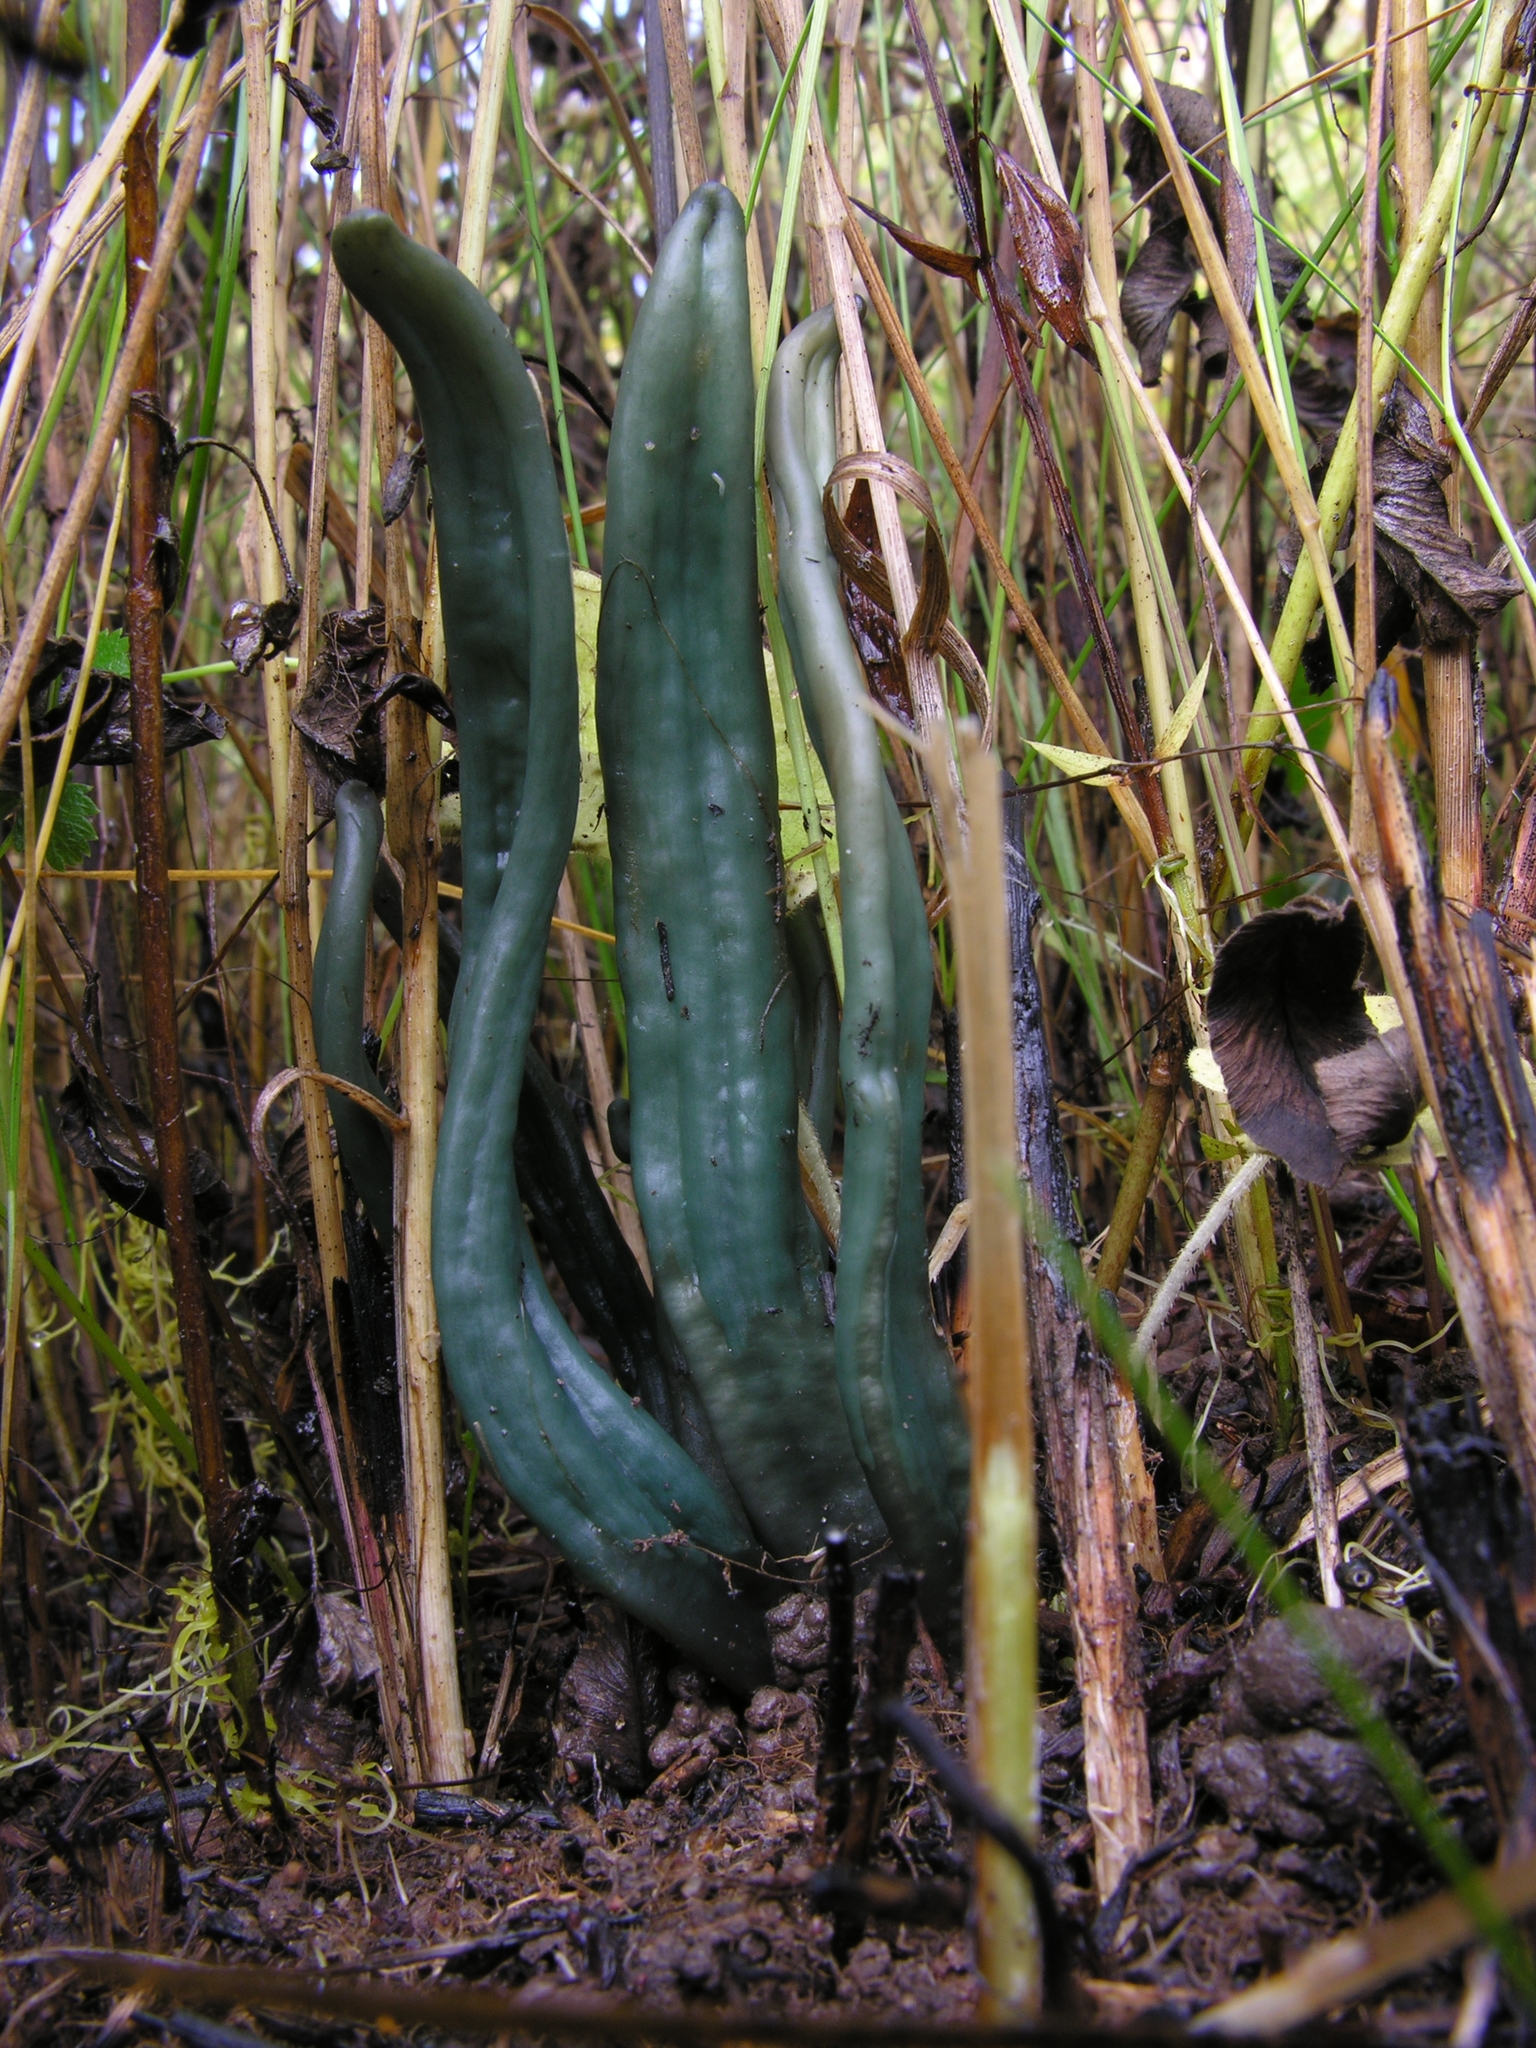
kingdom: Fungi
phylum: Ascomycota
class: Leotiomycetes
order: Leotiales
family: Leotiaceae
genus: Microglossum
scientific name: Microglossum pratense
